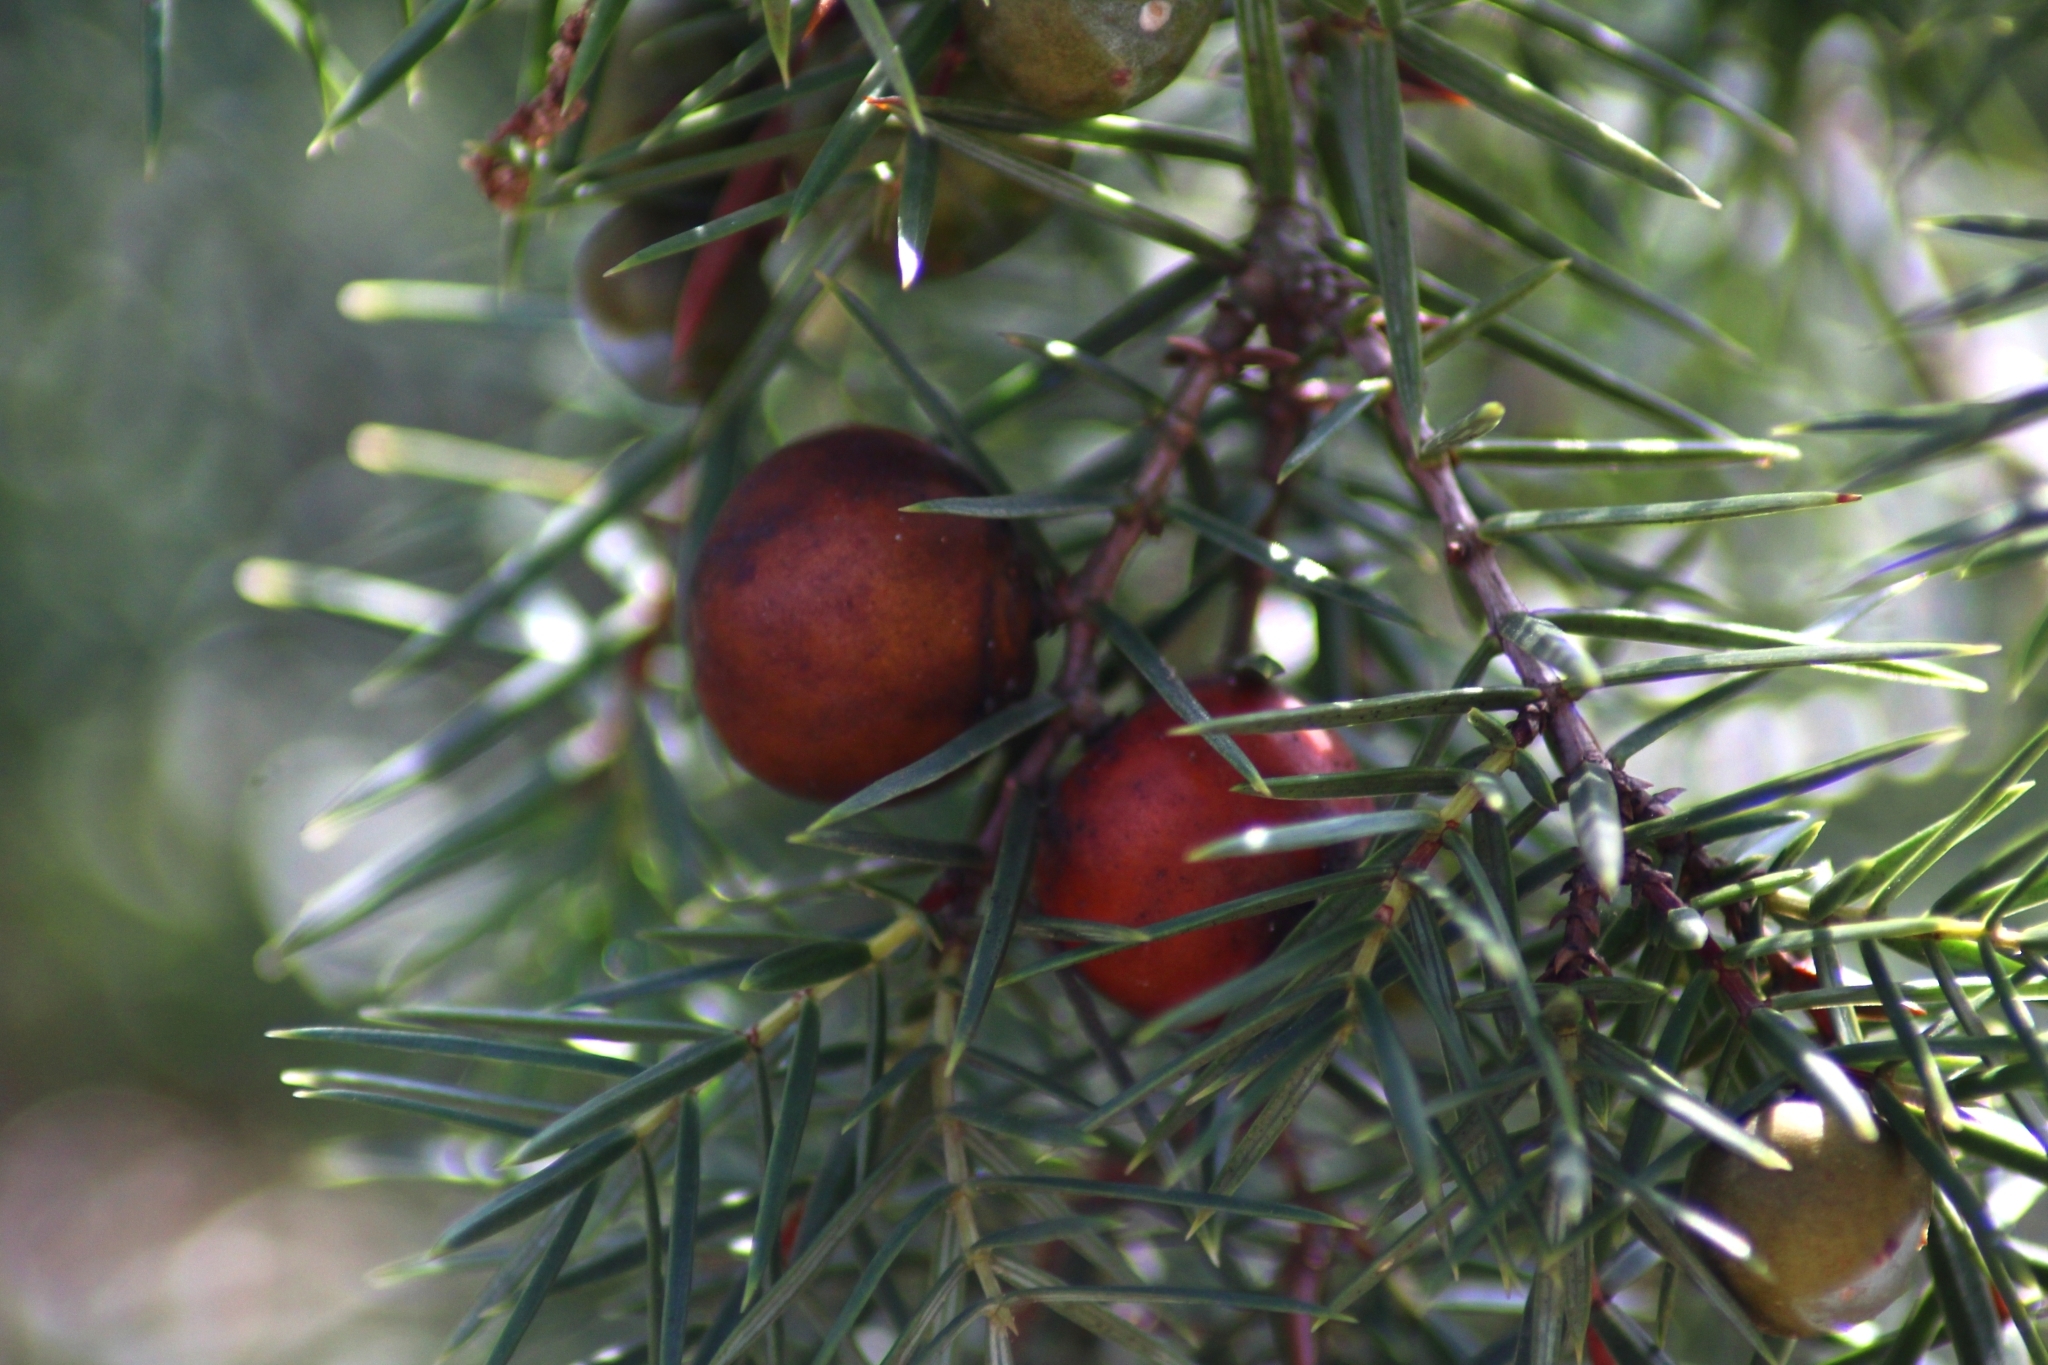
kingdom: Plantae
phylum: Tracheophyta
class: Pinopsida
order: Pinales
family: Cupressaceae
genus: Juniperus
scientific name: Juniperus oxycedrus
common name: Prickly juniper
